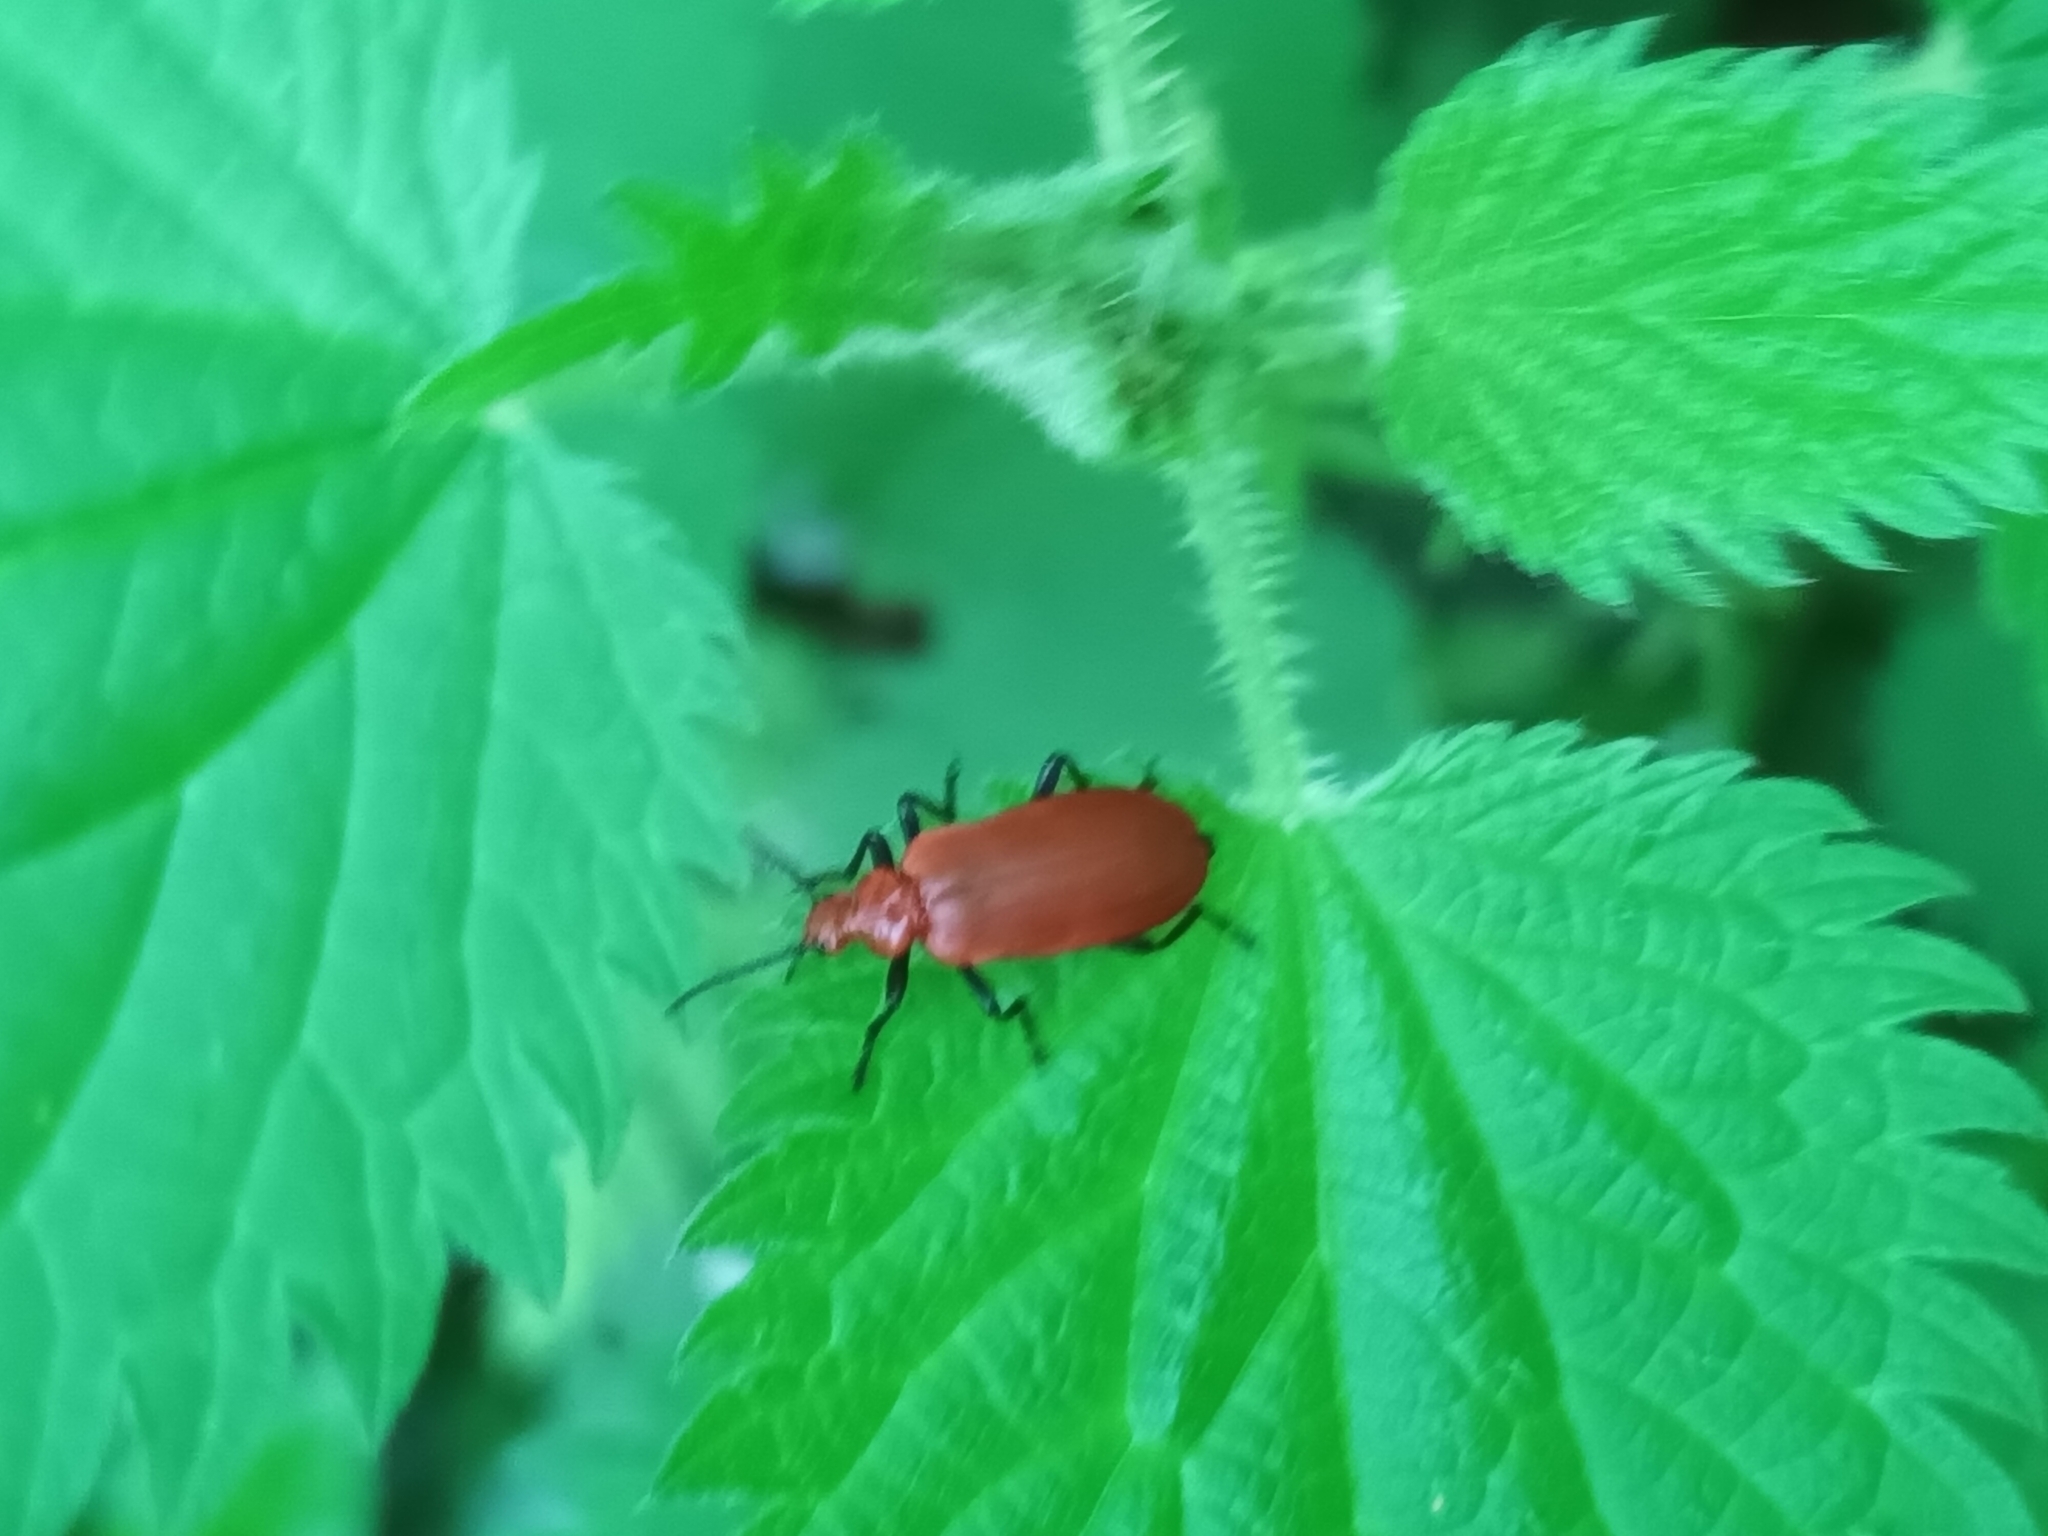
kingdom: Animalia
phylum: Arthropoda
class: Insecta
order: Coleoptera
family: Pyrochroidae
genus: Pyrochroa
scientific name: Pyrochroa serraticornis
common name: Red-headed cardinal beetle
